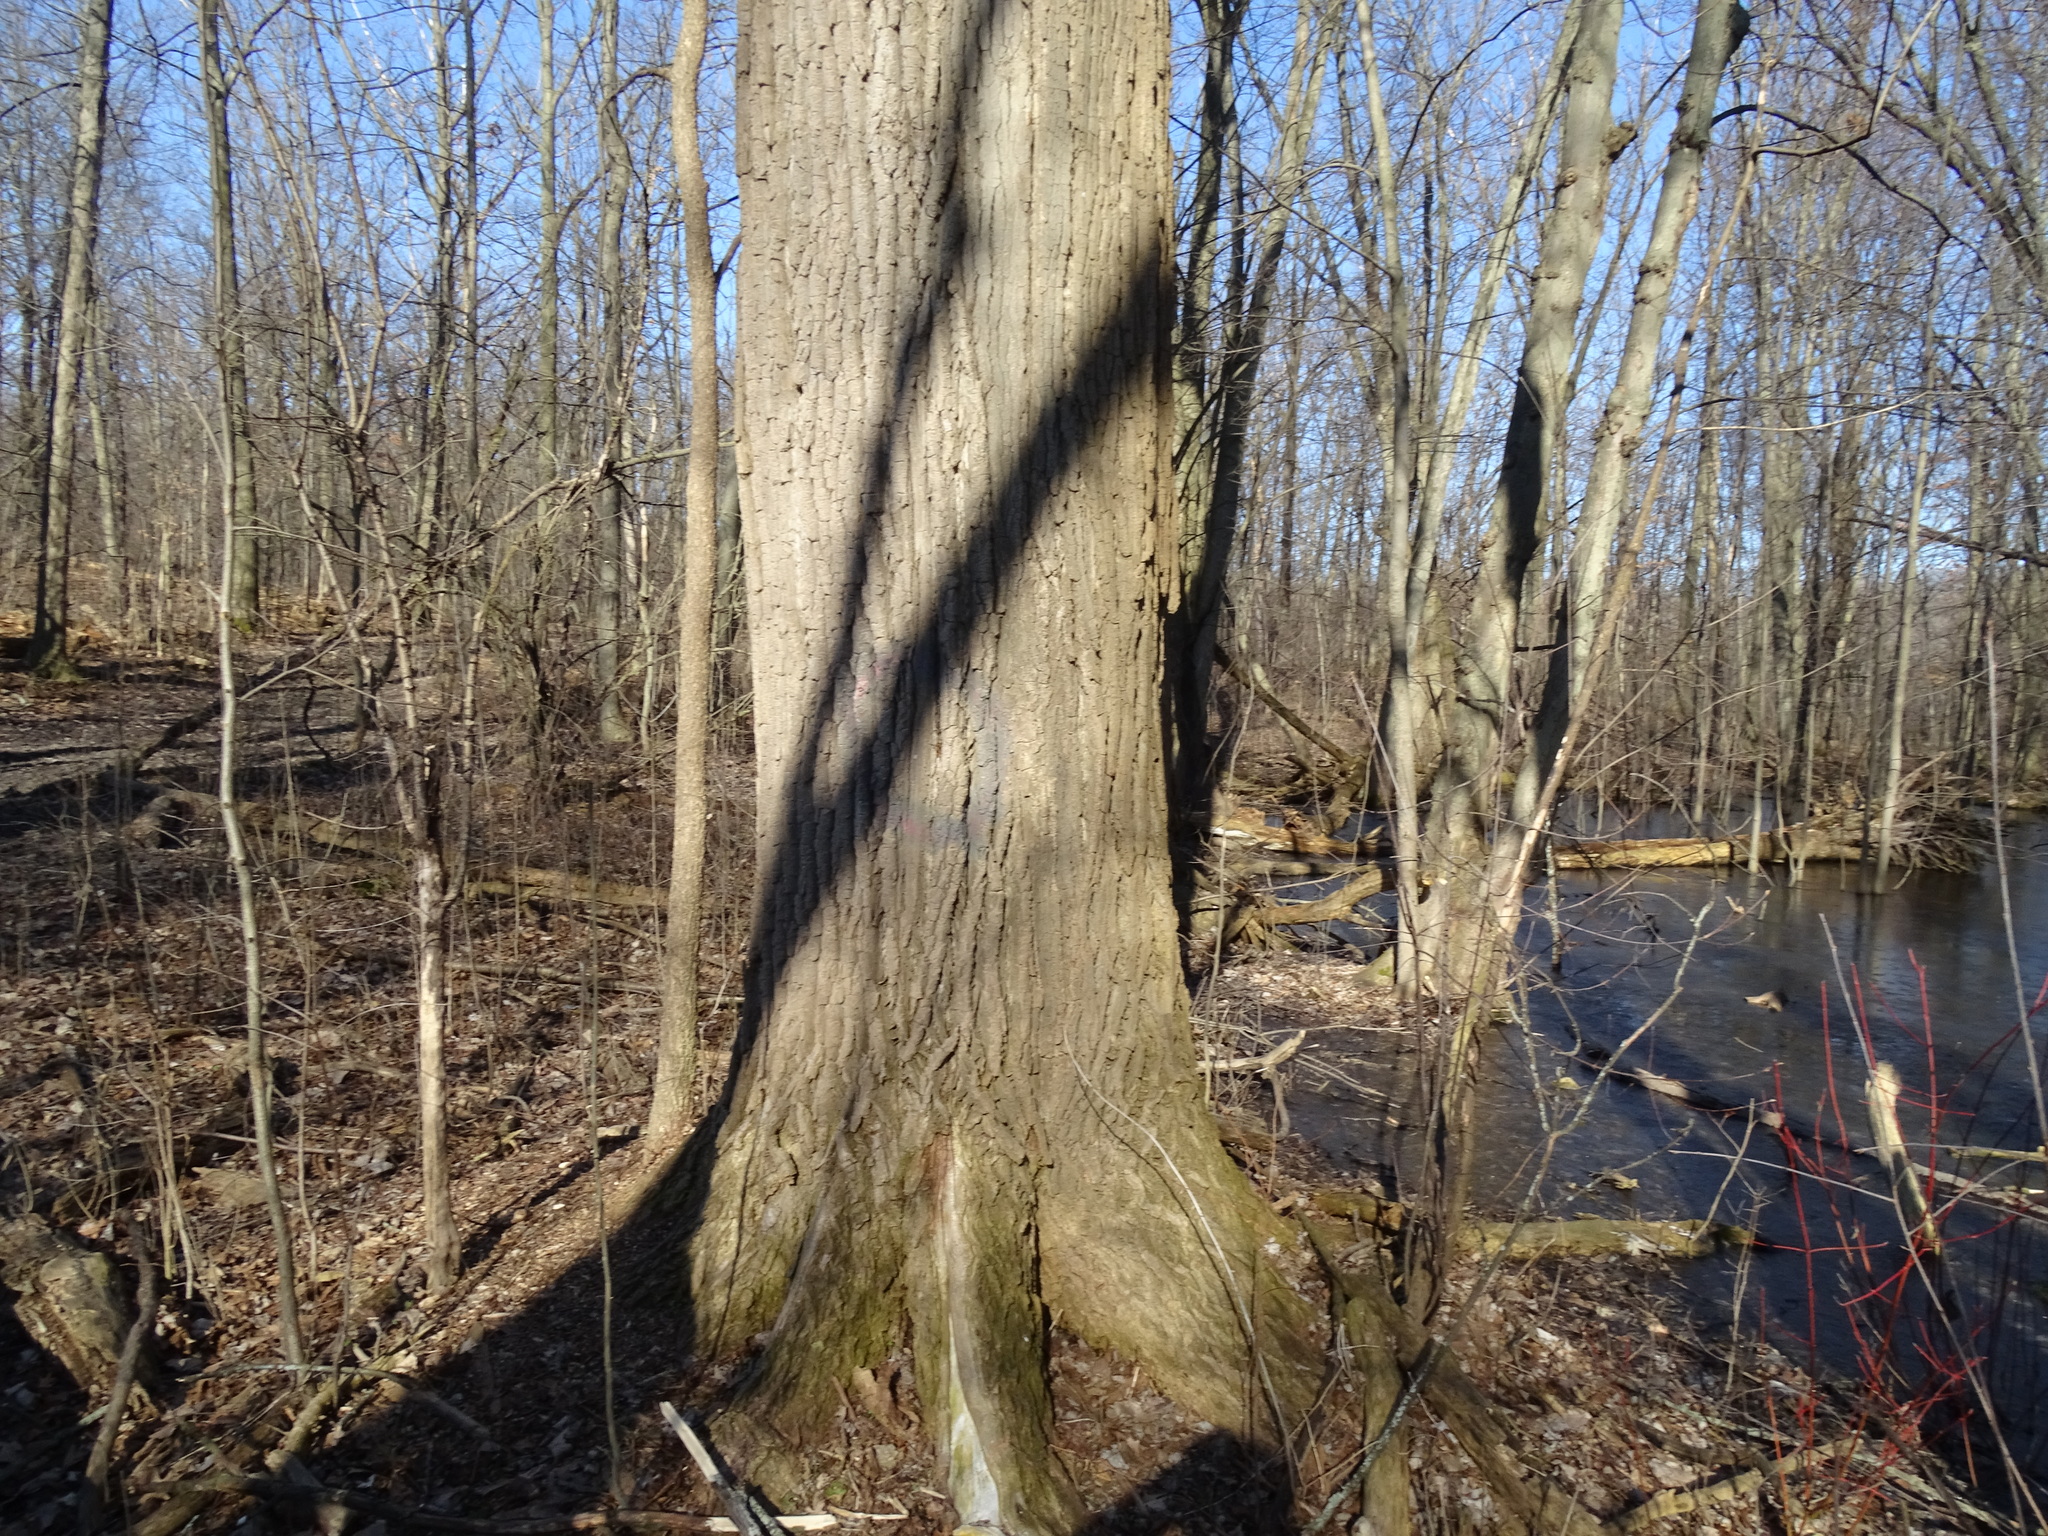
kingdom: Plantae
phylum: Tracheophyta
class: Magnoliopsida
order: Malpighiales
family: Salicaceae
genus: Populus
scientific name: Populus deltoides
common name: Eastern cottonwood
